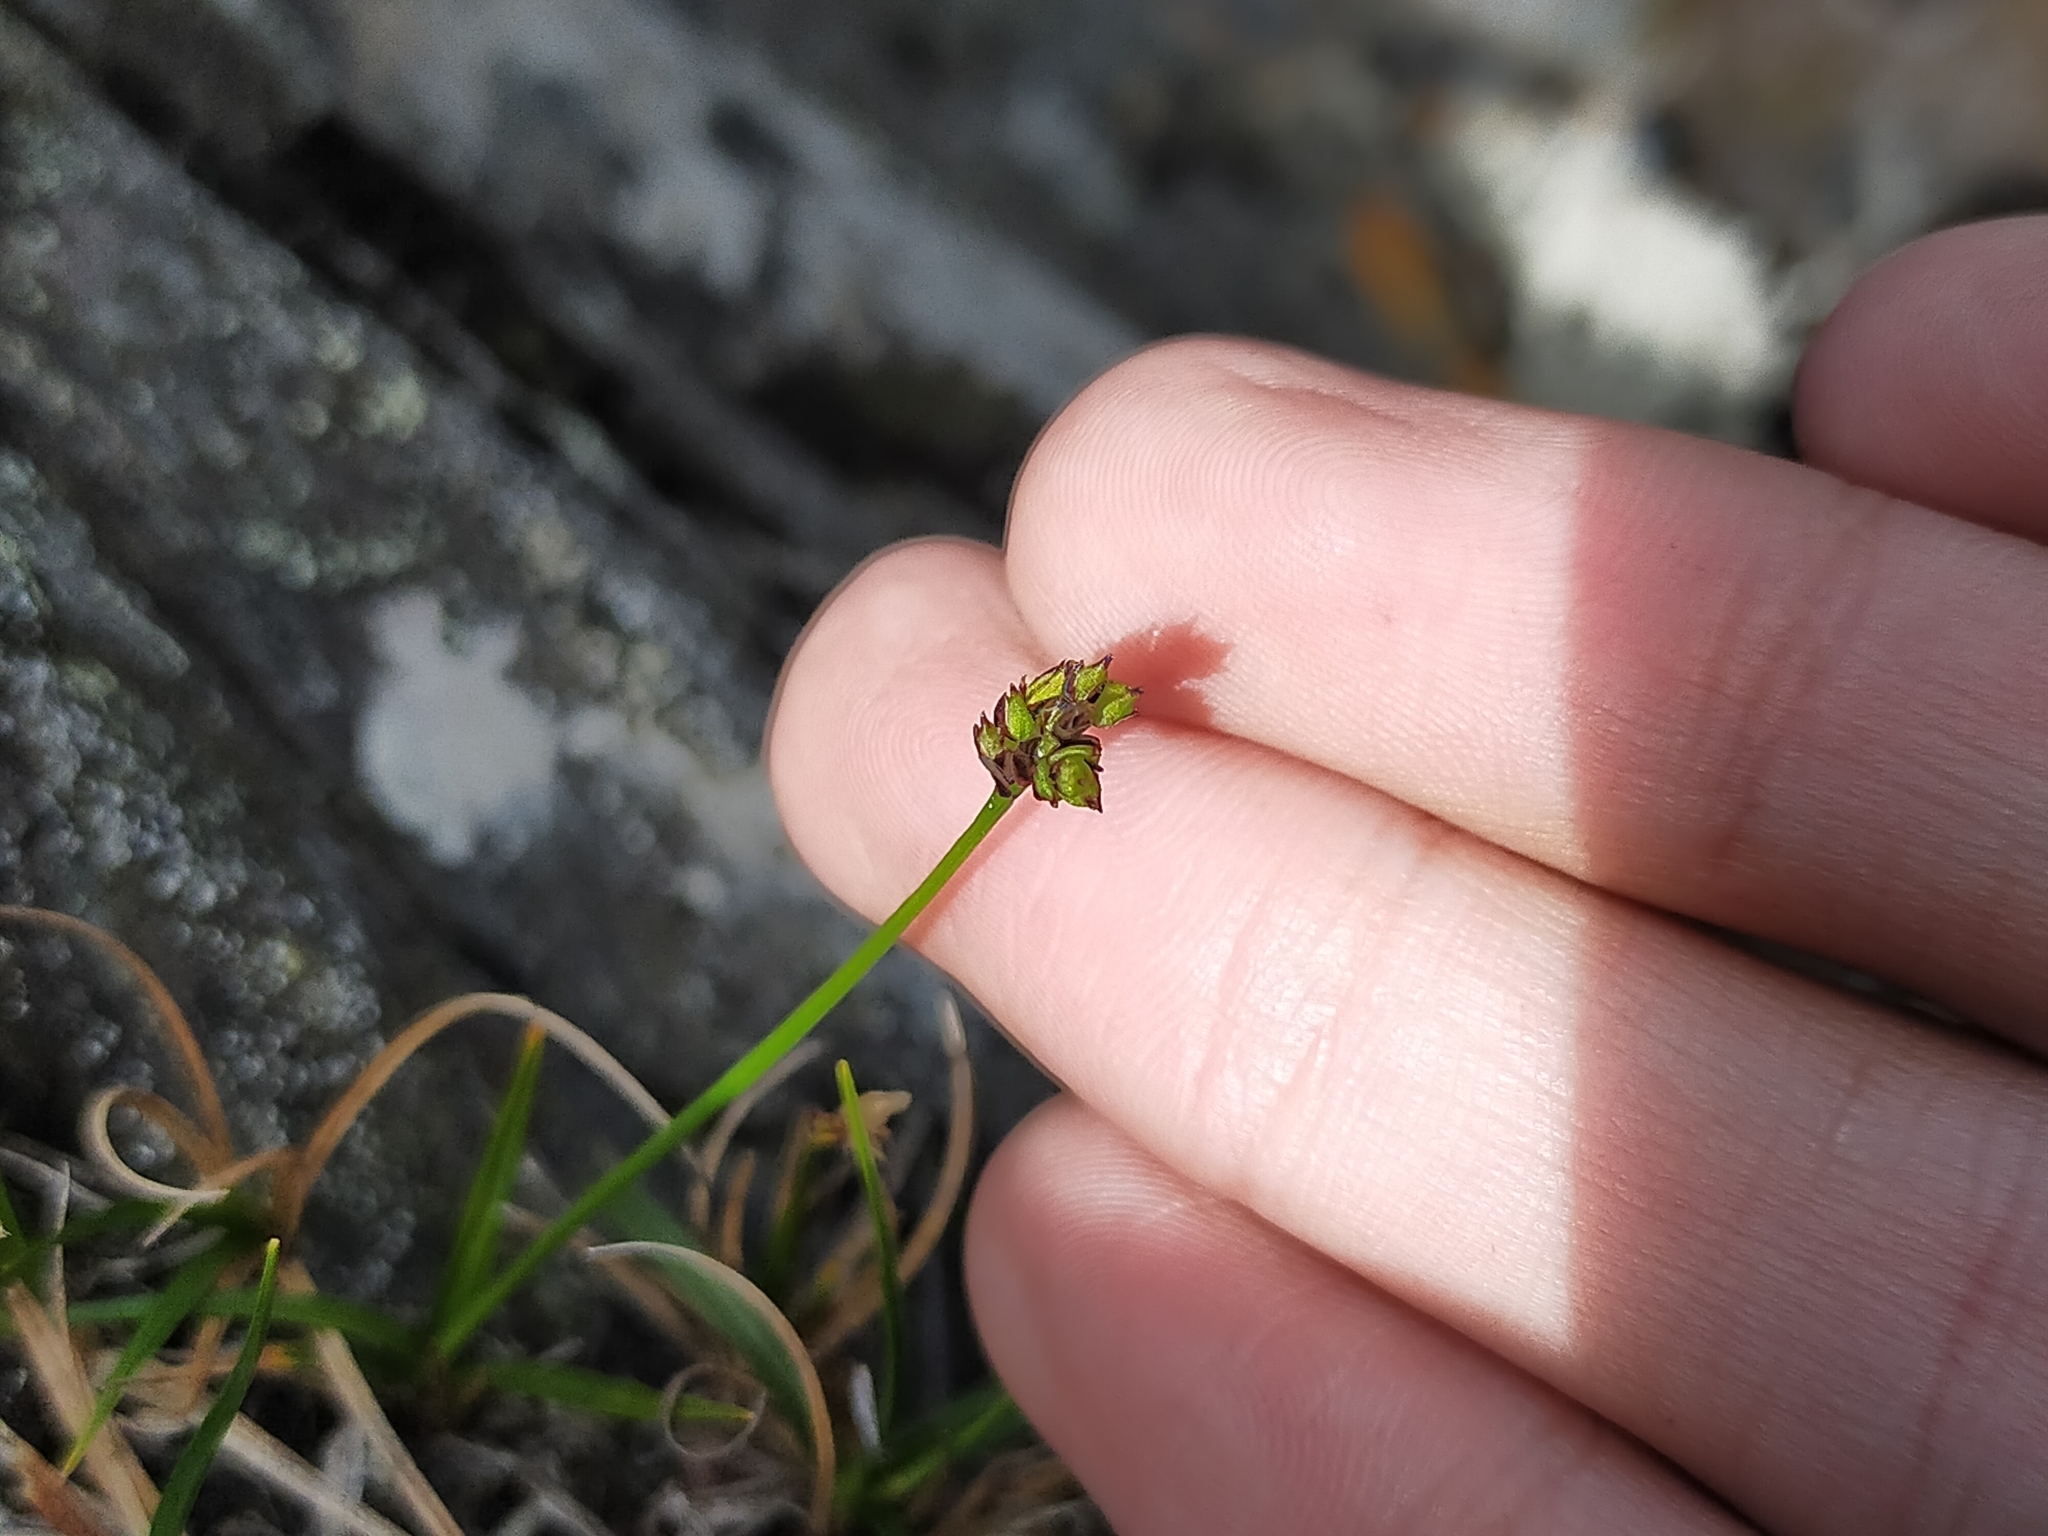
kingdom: Plantae
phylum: Tracheophyta
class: Liliopsida
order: Poales
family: Cyperaceae
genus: Carex
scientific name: Carex oxyandra
